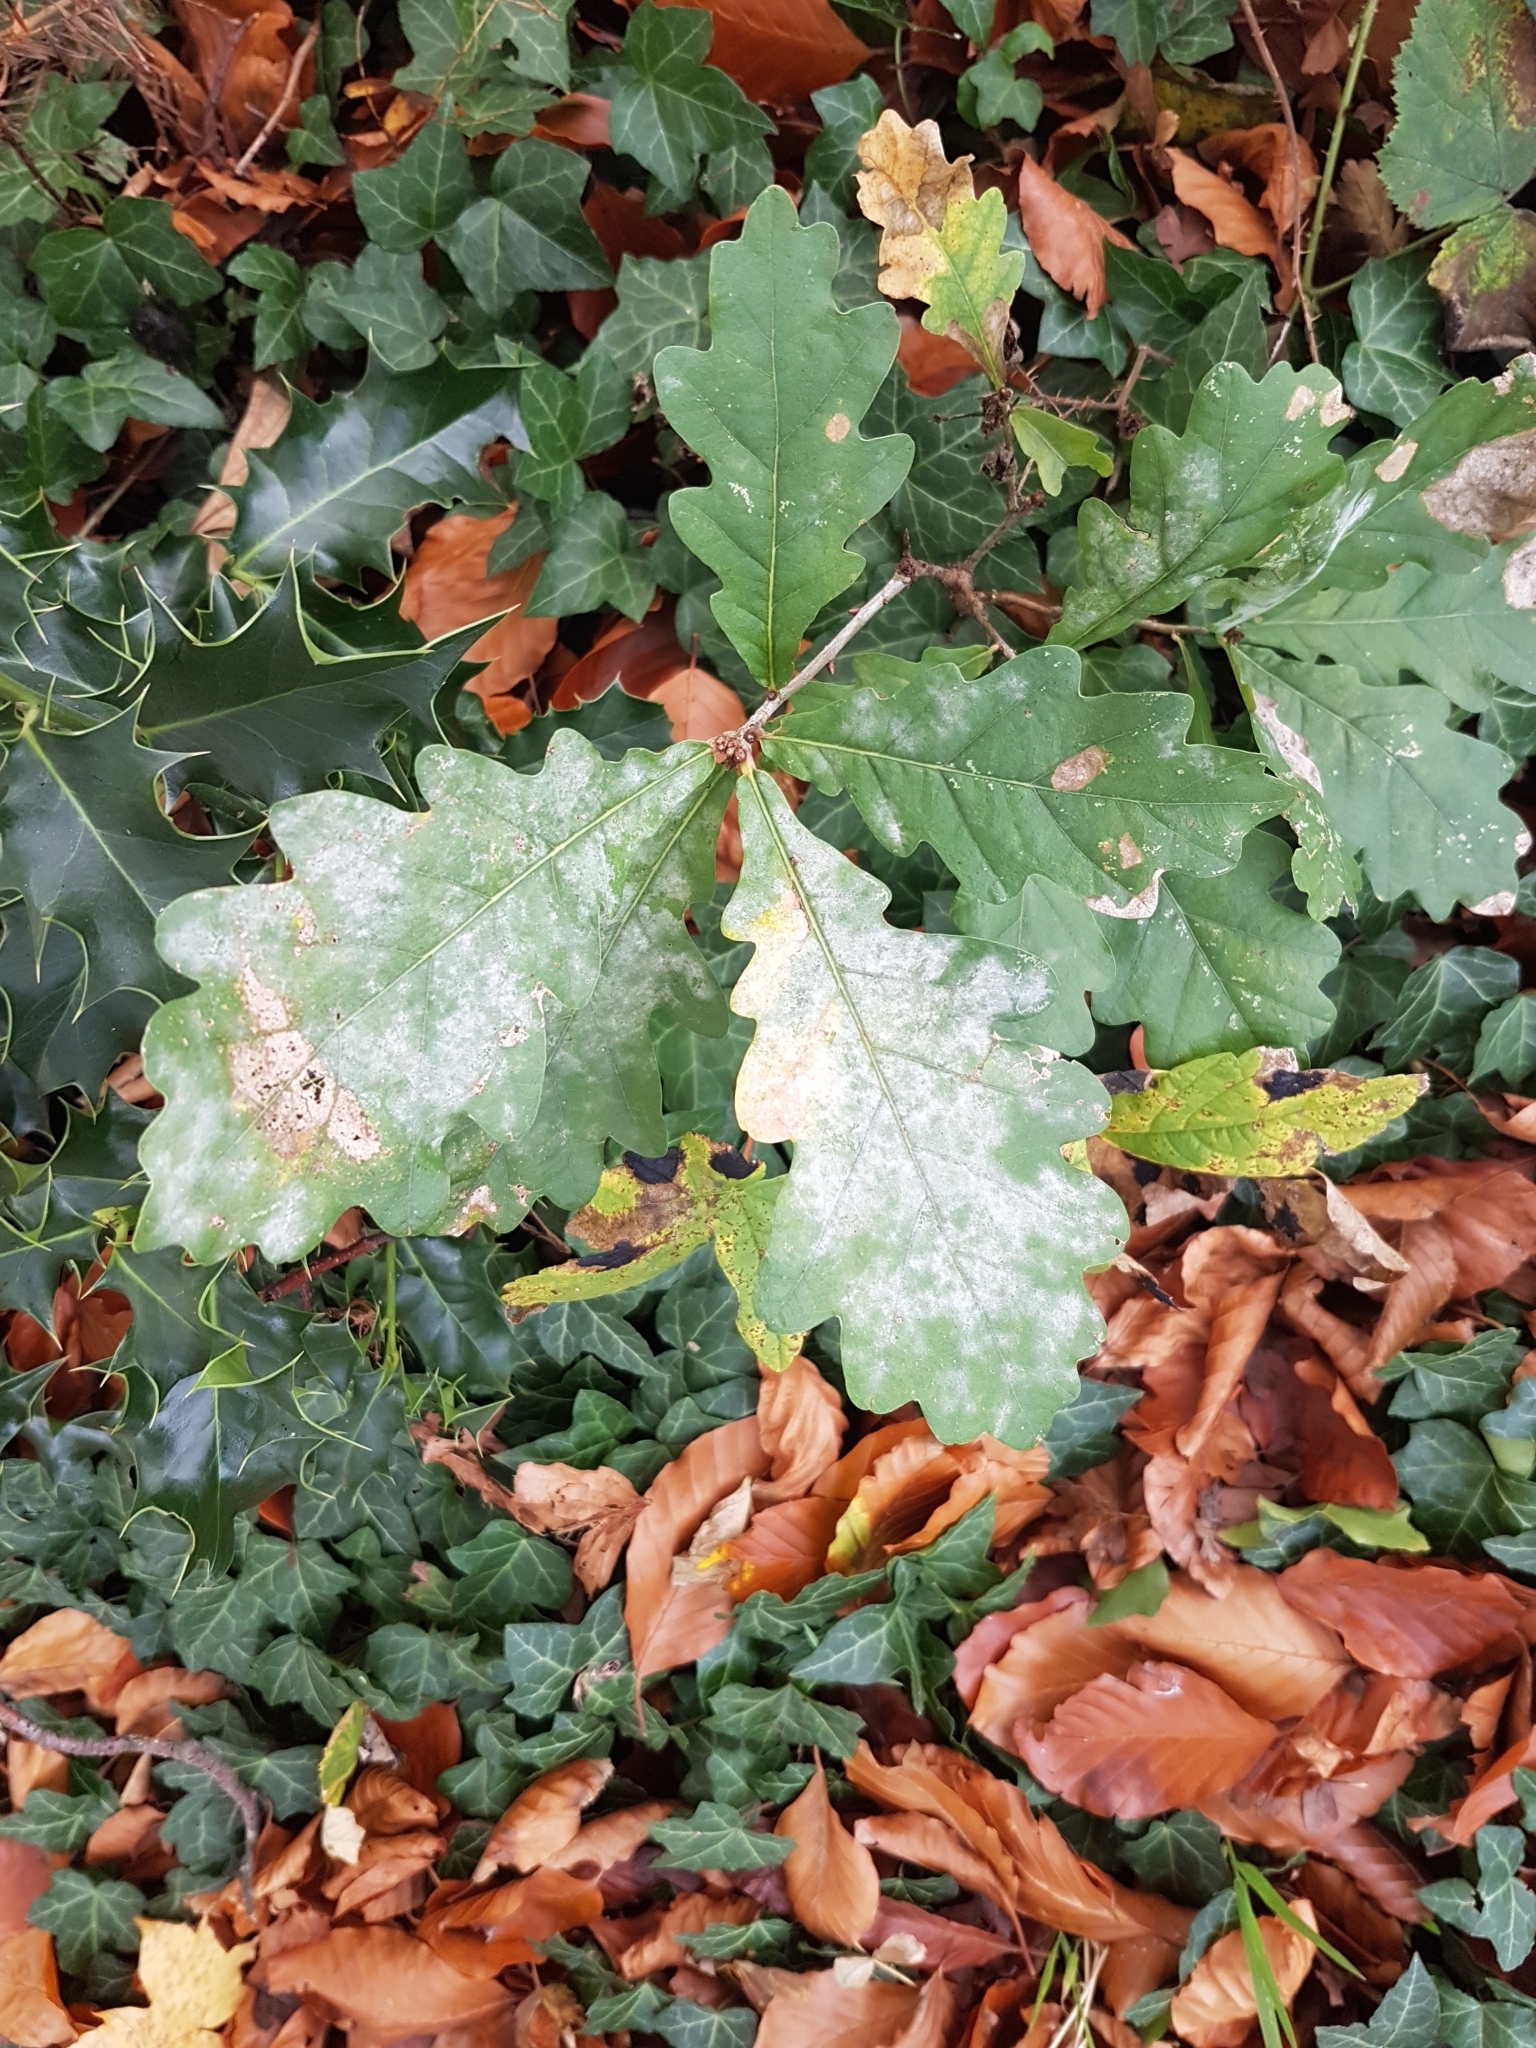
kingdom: Plantae
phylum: Tracheophyta
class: Magnoliopsida
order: Fagales
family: Fagaceae
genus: Quercus
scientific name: Quercus robur
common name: Pedunculate oak
